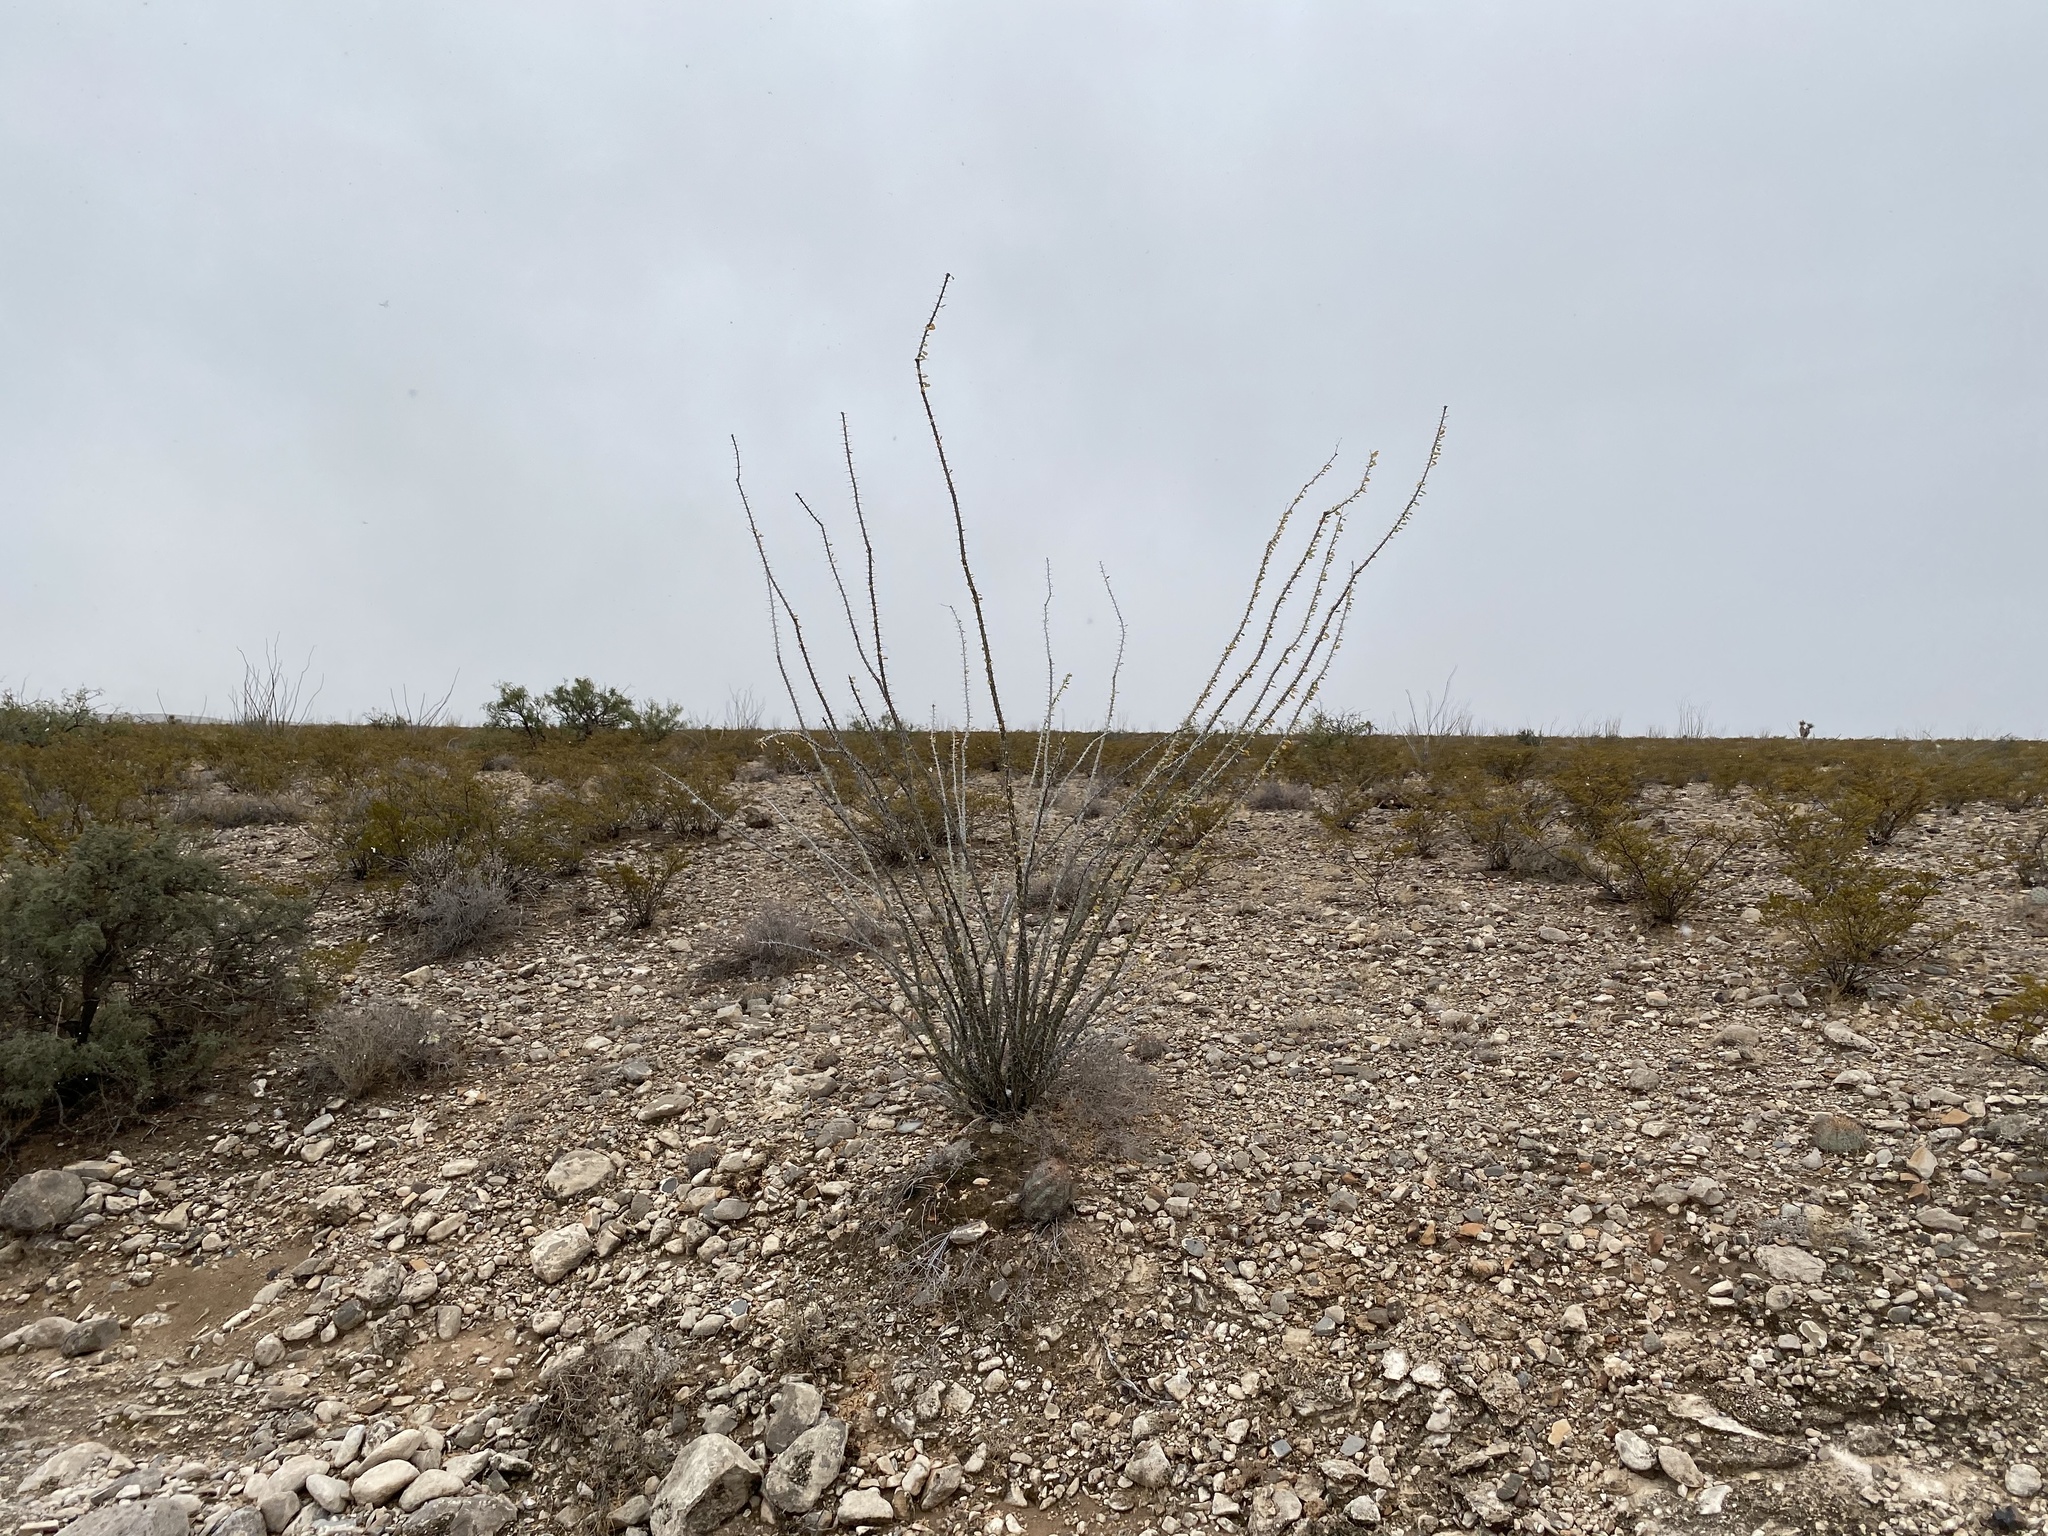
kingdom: Plantae
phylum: Tracheophyta
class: Magnoliopsida
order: Ericales
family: Fouquieriaceae
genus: Fouquieria
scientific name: Fouquieria splendens
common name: Vine-cactus
